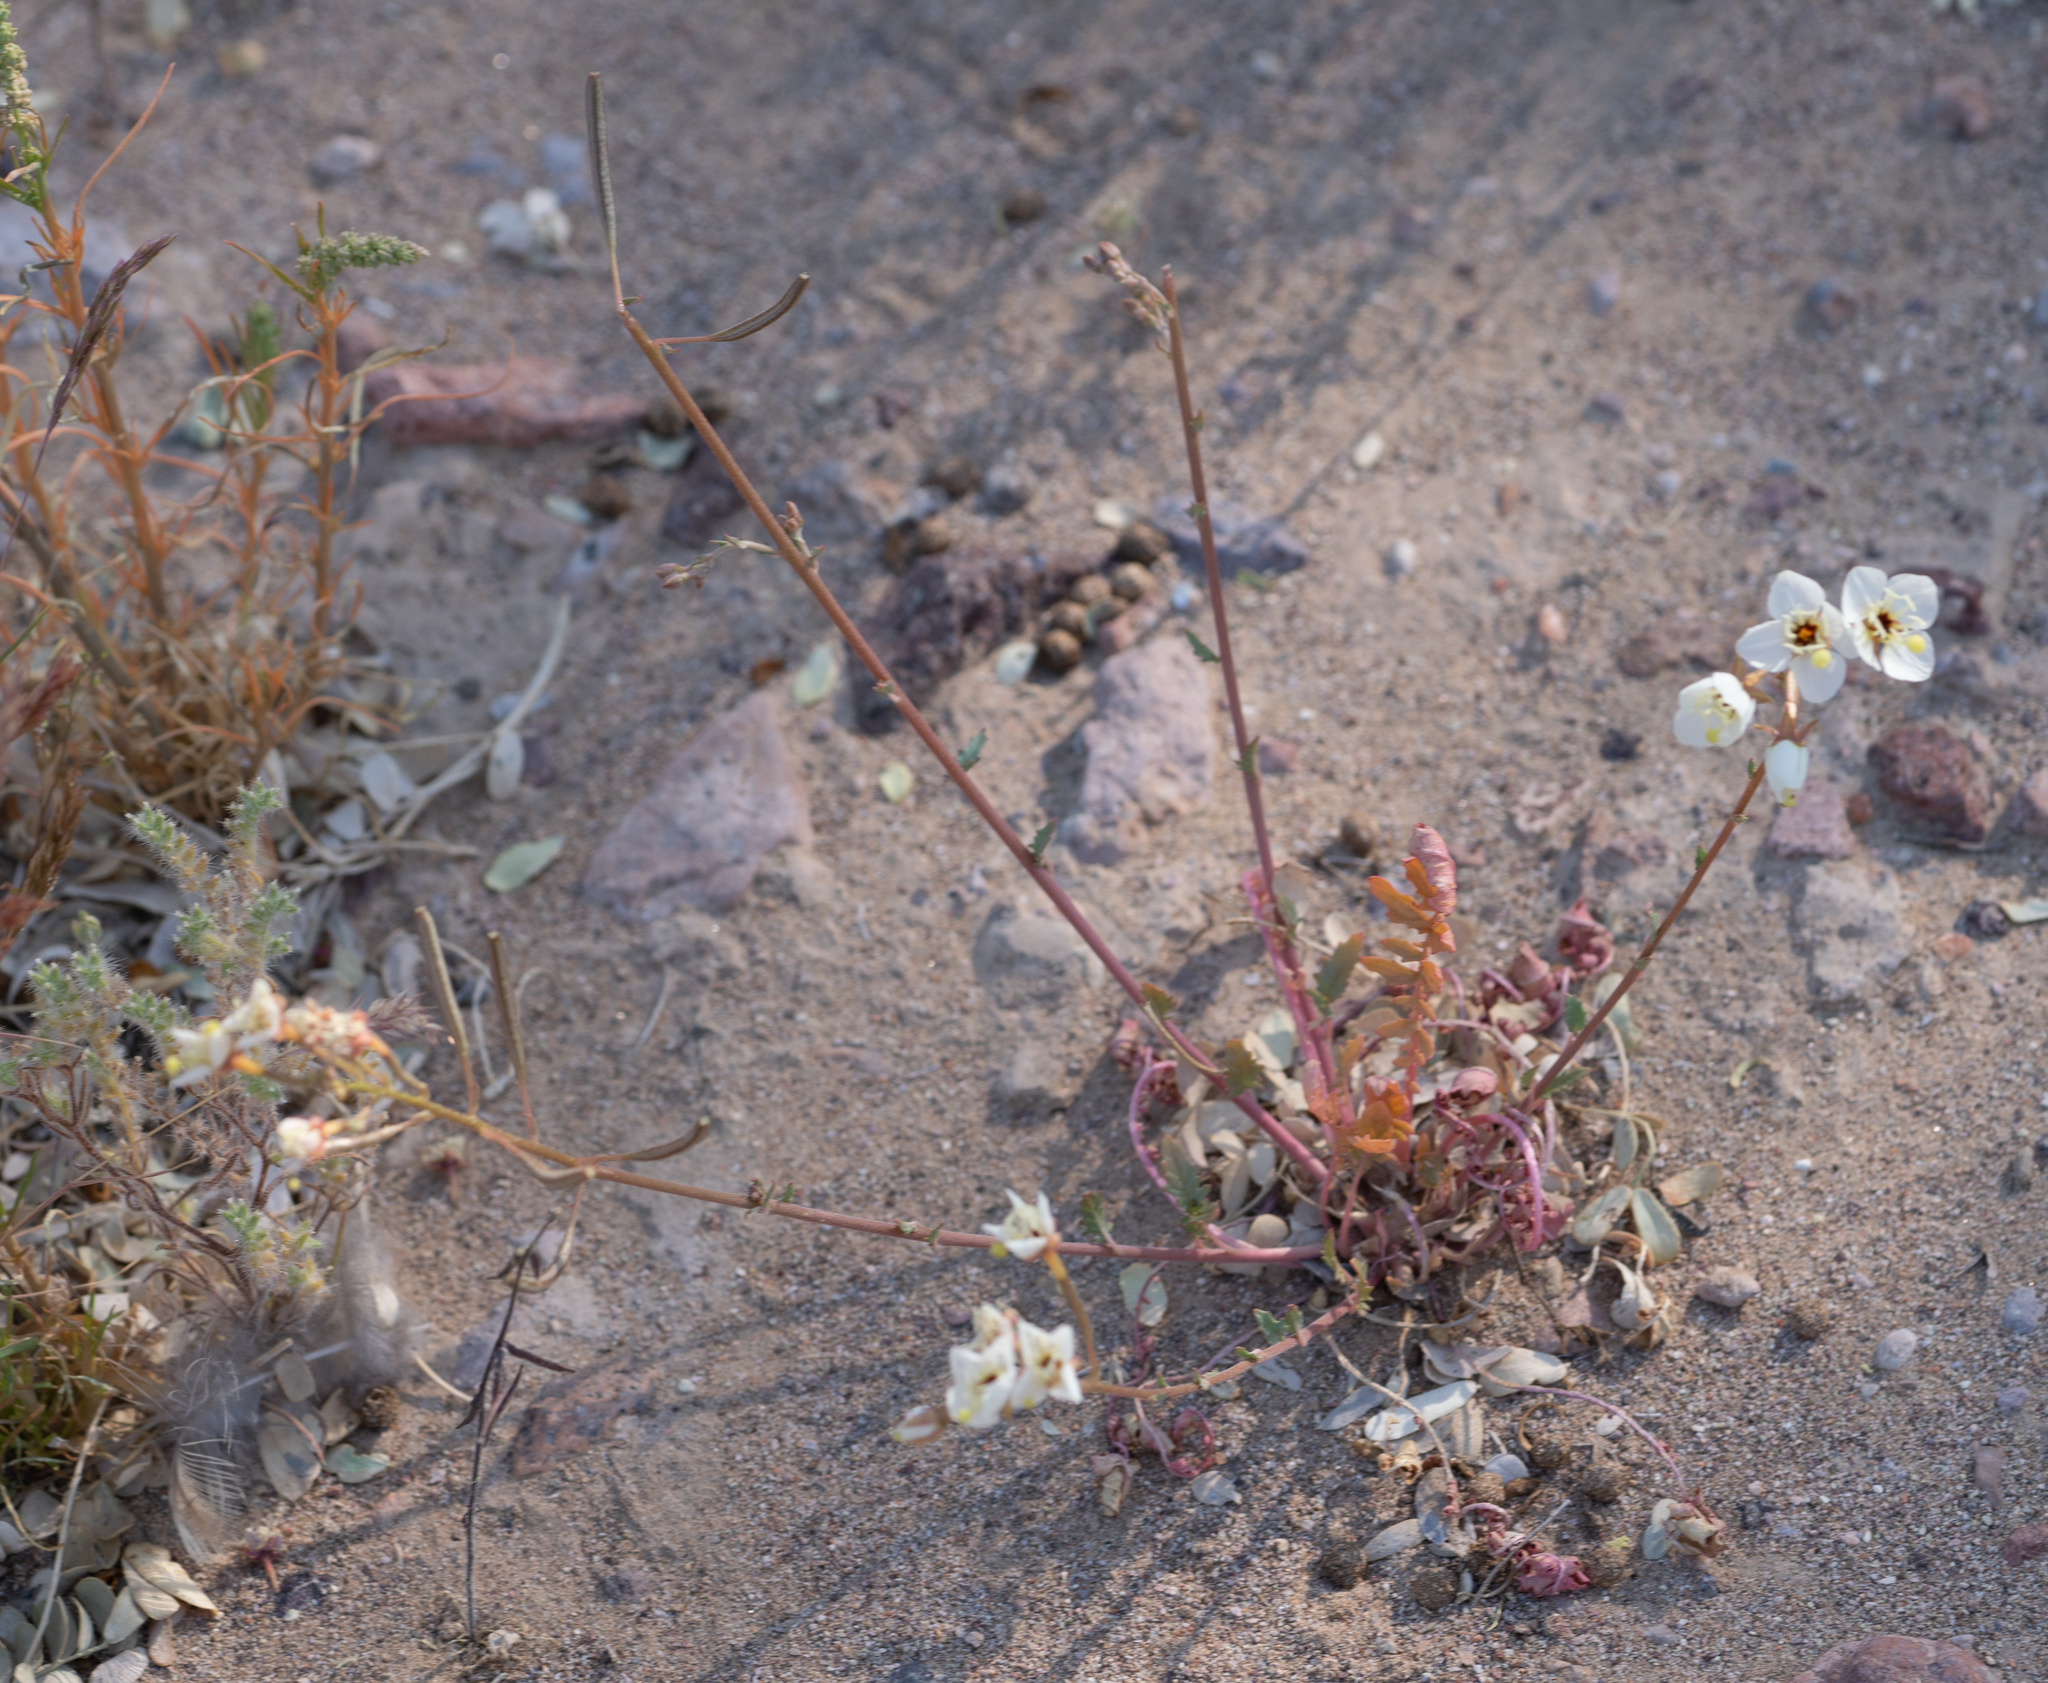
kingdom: Plantae
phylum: Tracheophyta
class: Magnoliopsida
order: Myrtales
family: Onagraceae
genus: Chylismia
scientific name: Chylismia claviformis
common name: Browneyes
